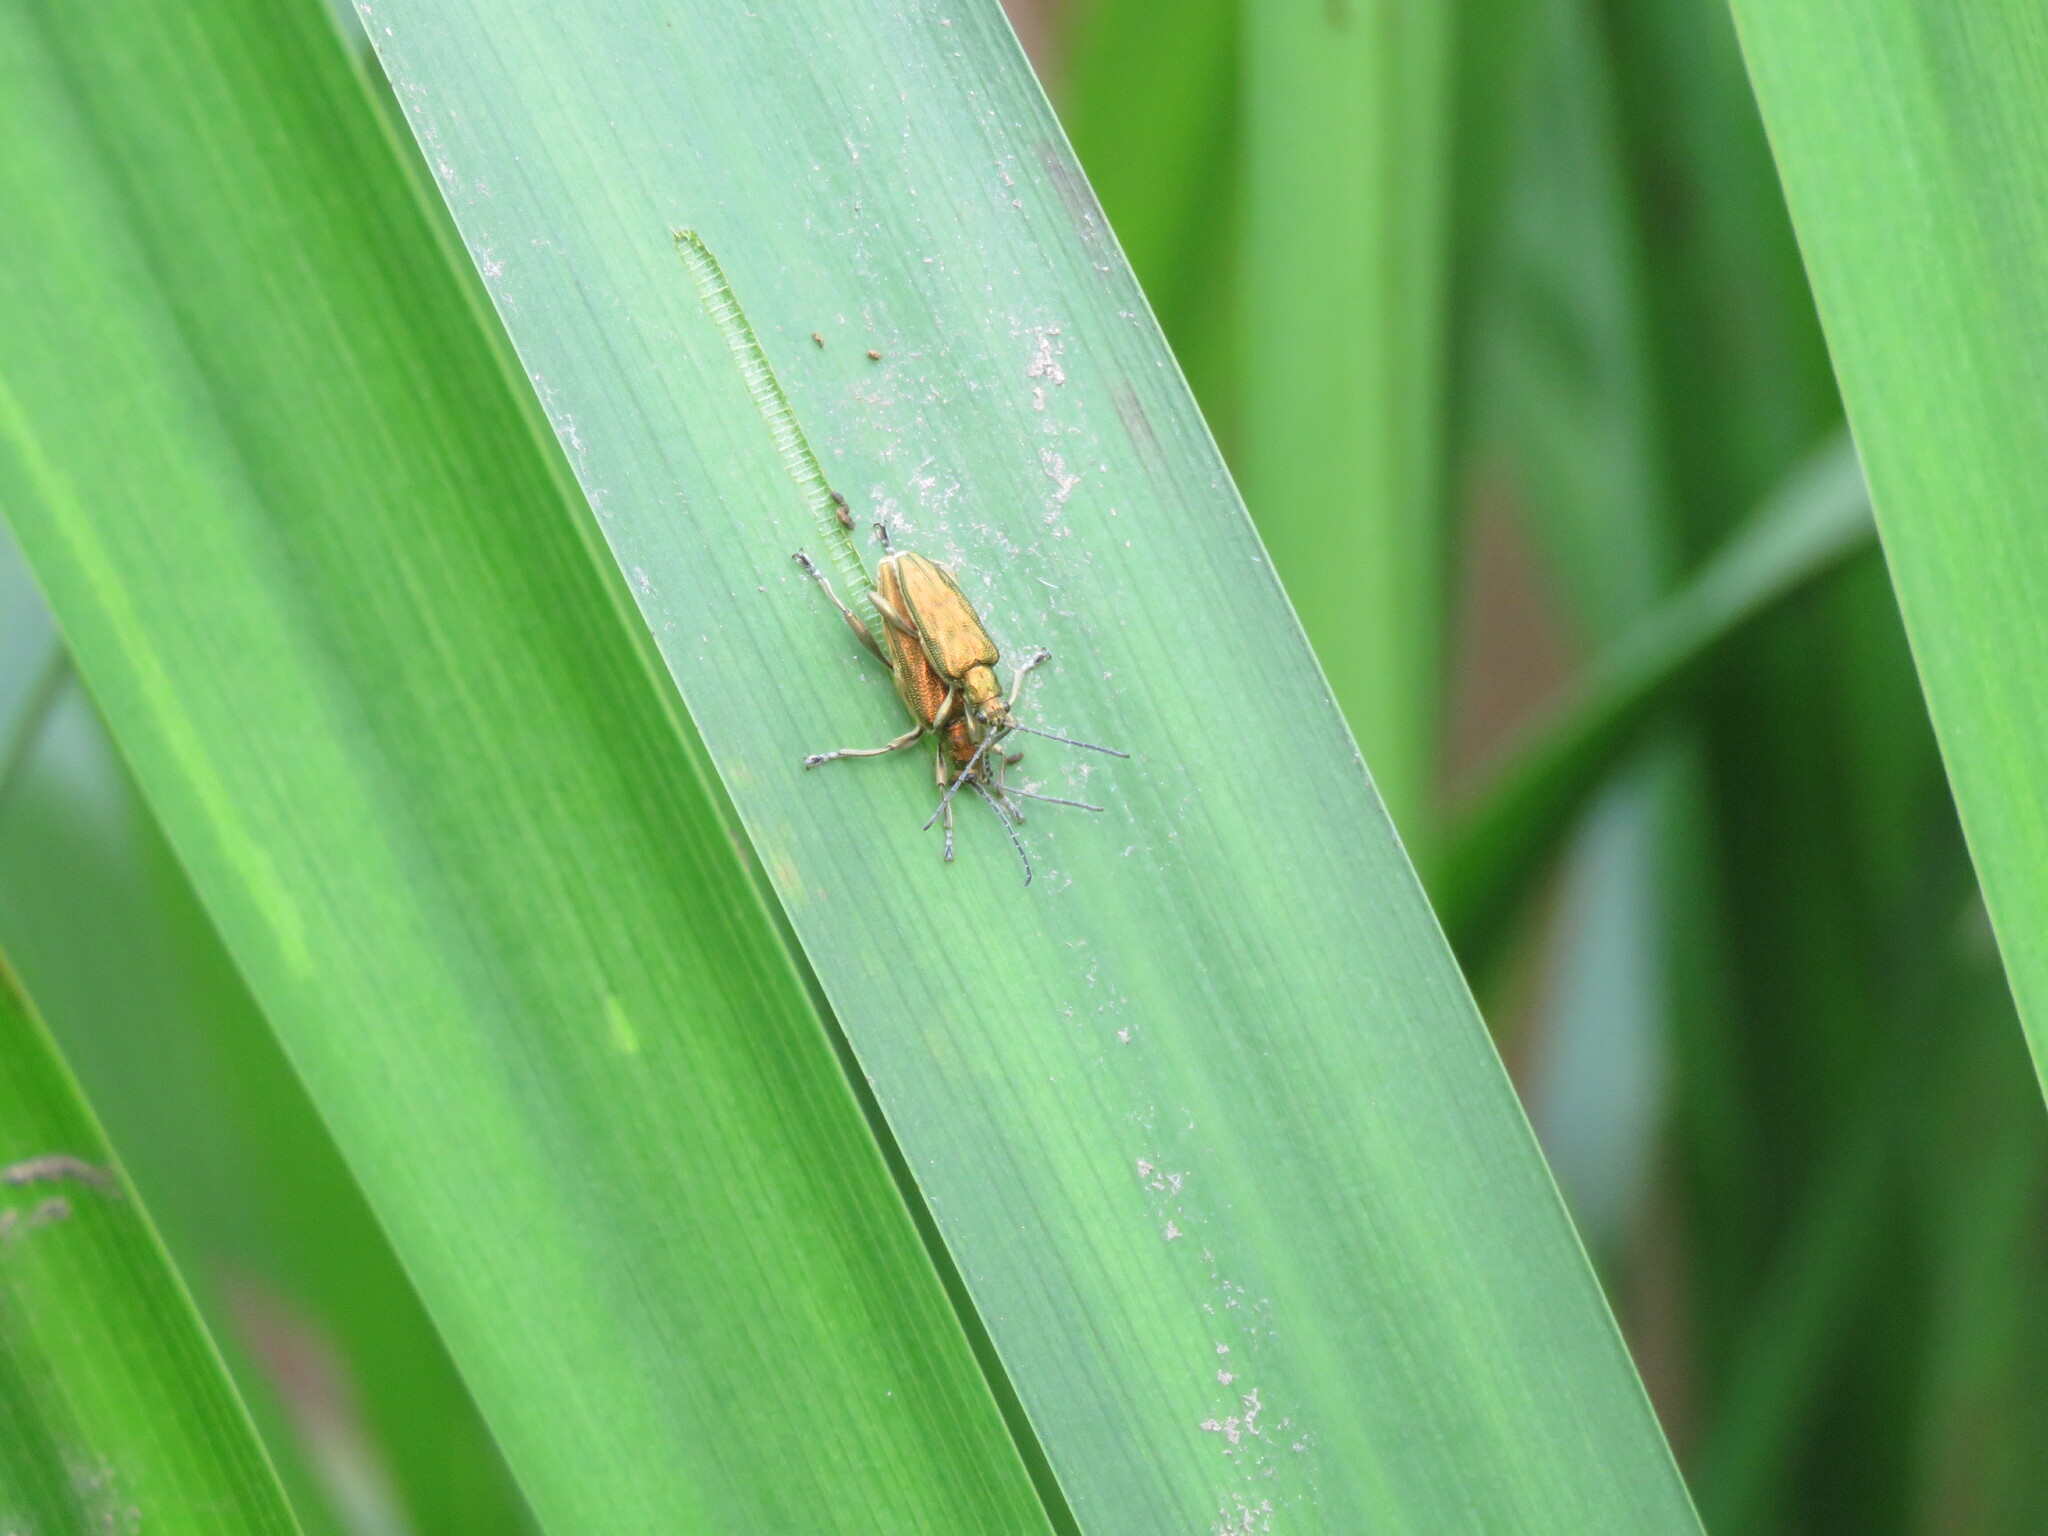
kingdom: Animalia
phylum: Arthropoda
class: Insecta
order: Coleoptera
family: Chrysomelidae
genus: Donacia
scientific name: Donacia bicolora
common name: Reed beetle
